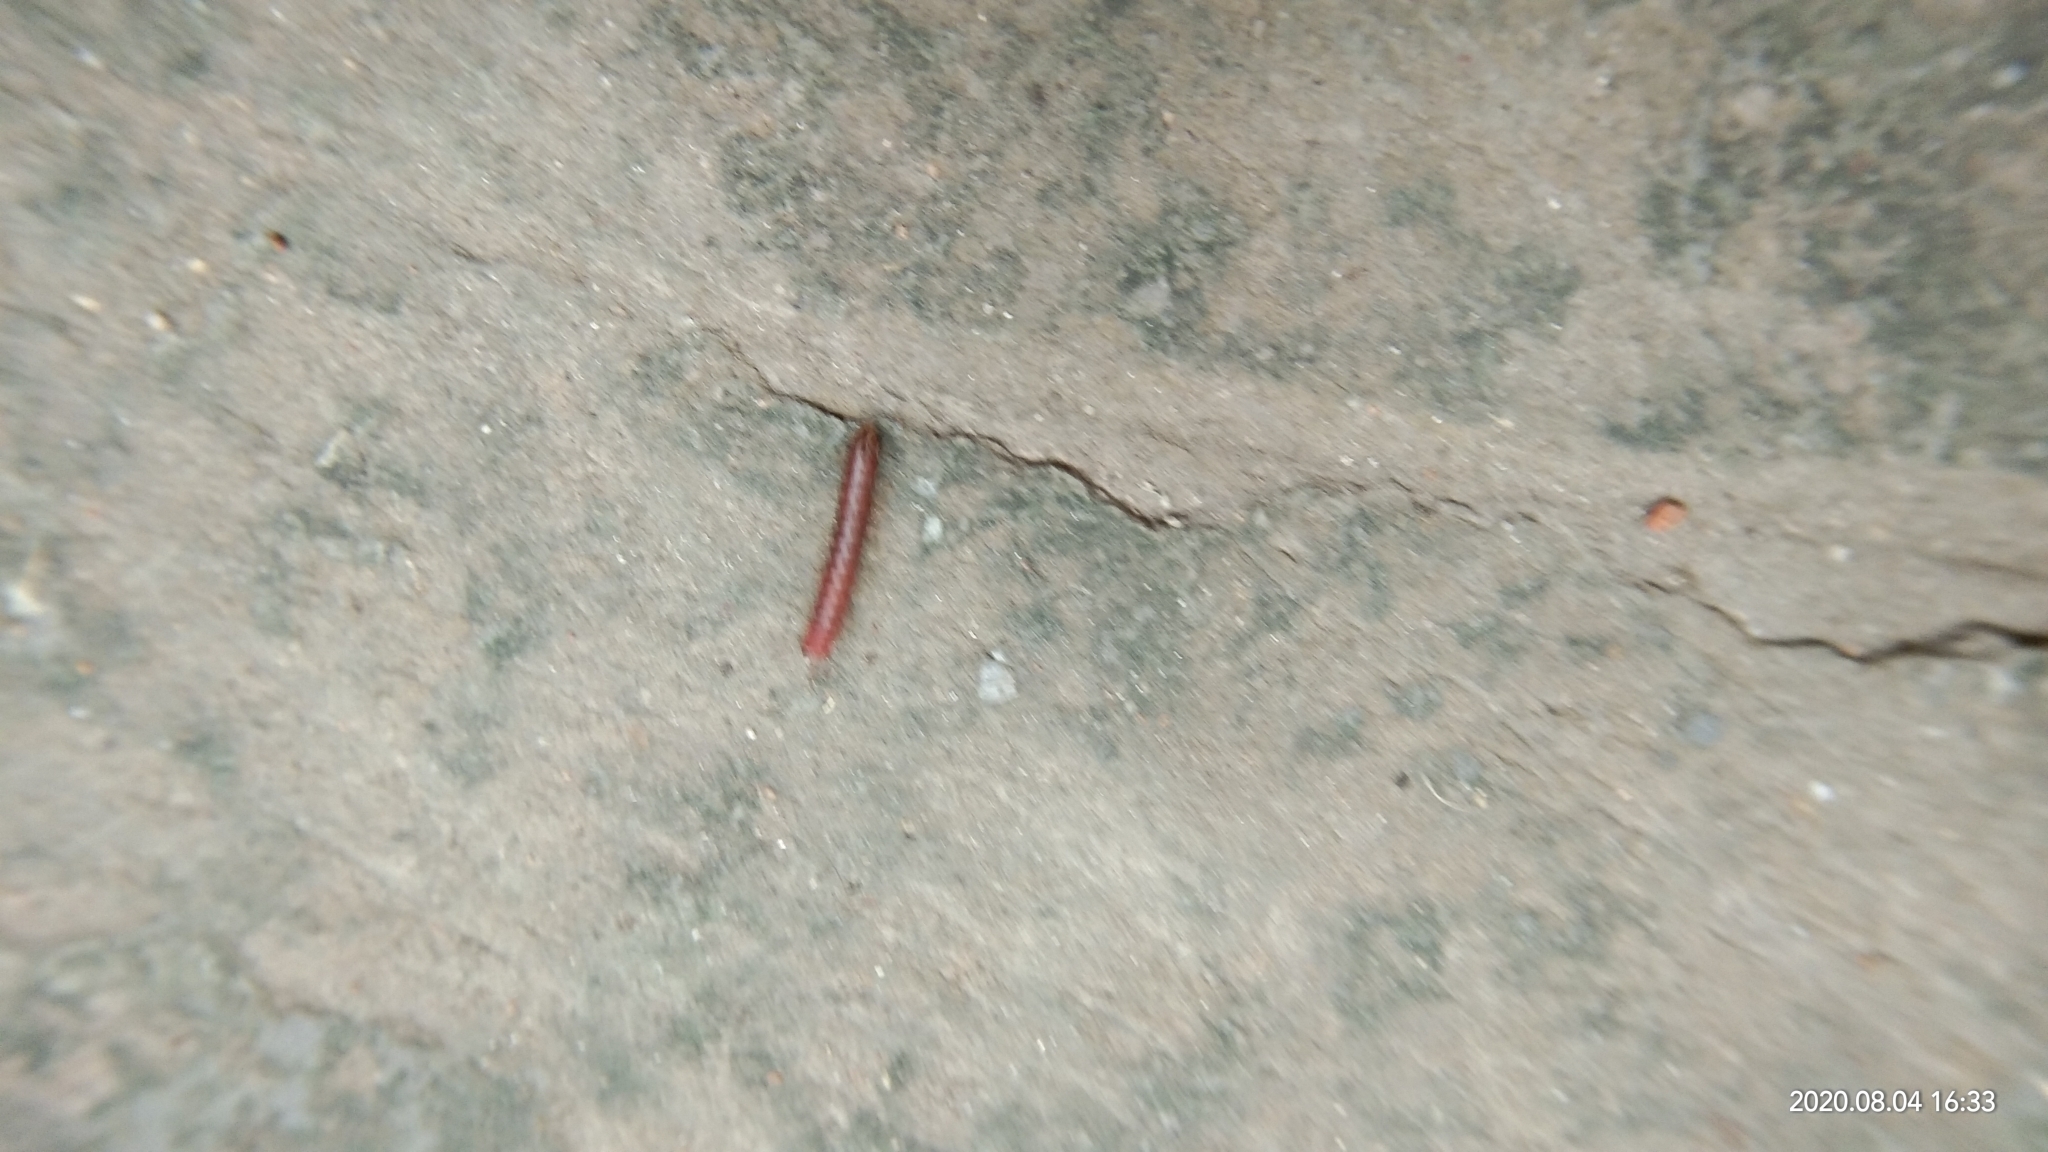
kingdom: Animalia
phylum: Arthropoda
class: Diplopoda
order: Spirobolida
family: Pachybolidae
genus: Trigoniulus
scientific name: Trigoniulus corallinus
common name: Millipede
